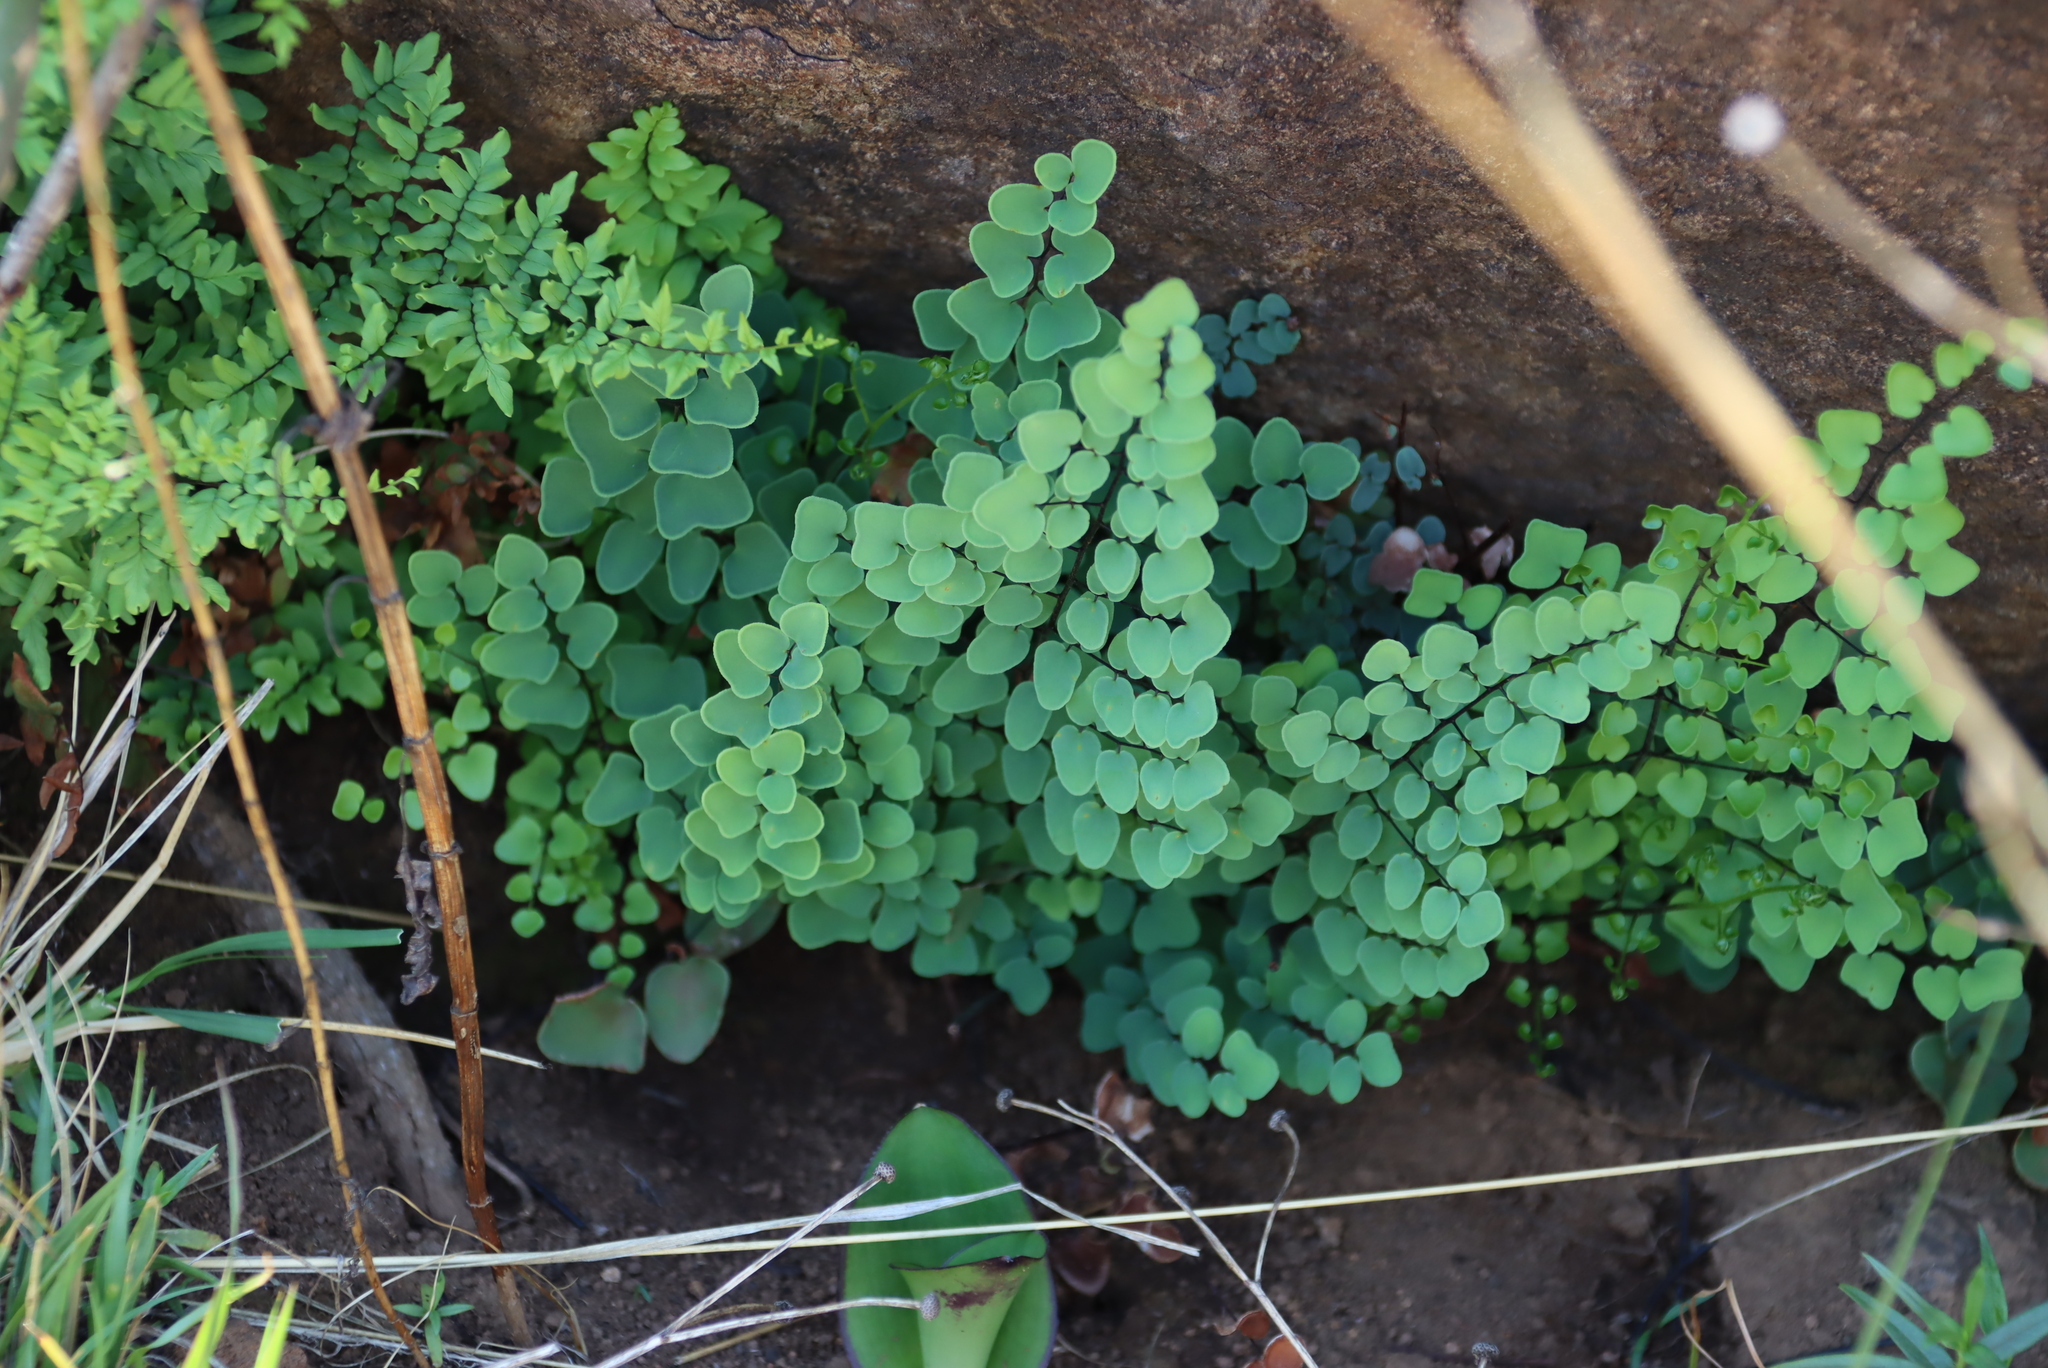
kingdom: Plantae
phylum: Tracheophyta
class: Polypodiopsida
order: Polypodiales
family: Pteridaceae
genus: Pellaea
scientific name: Pellaea calomelanos
